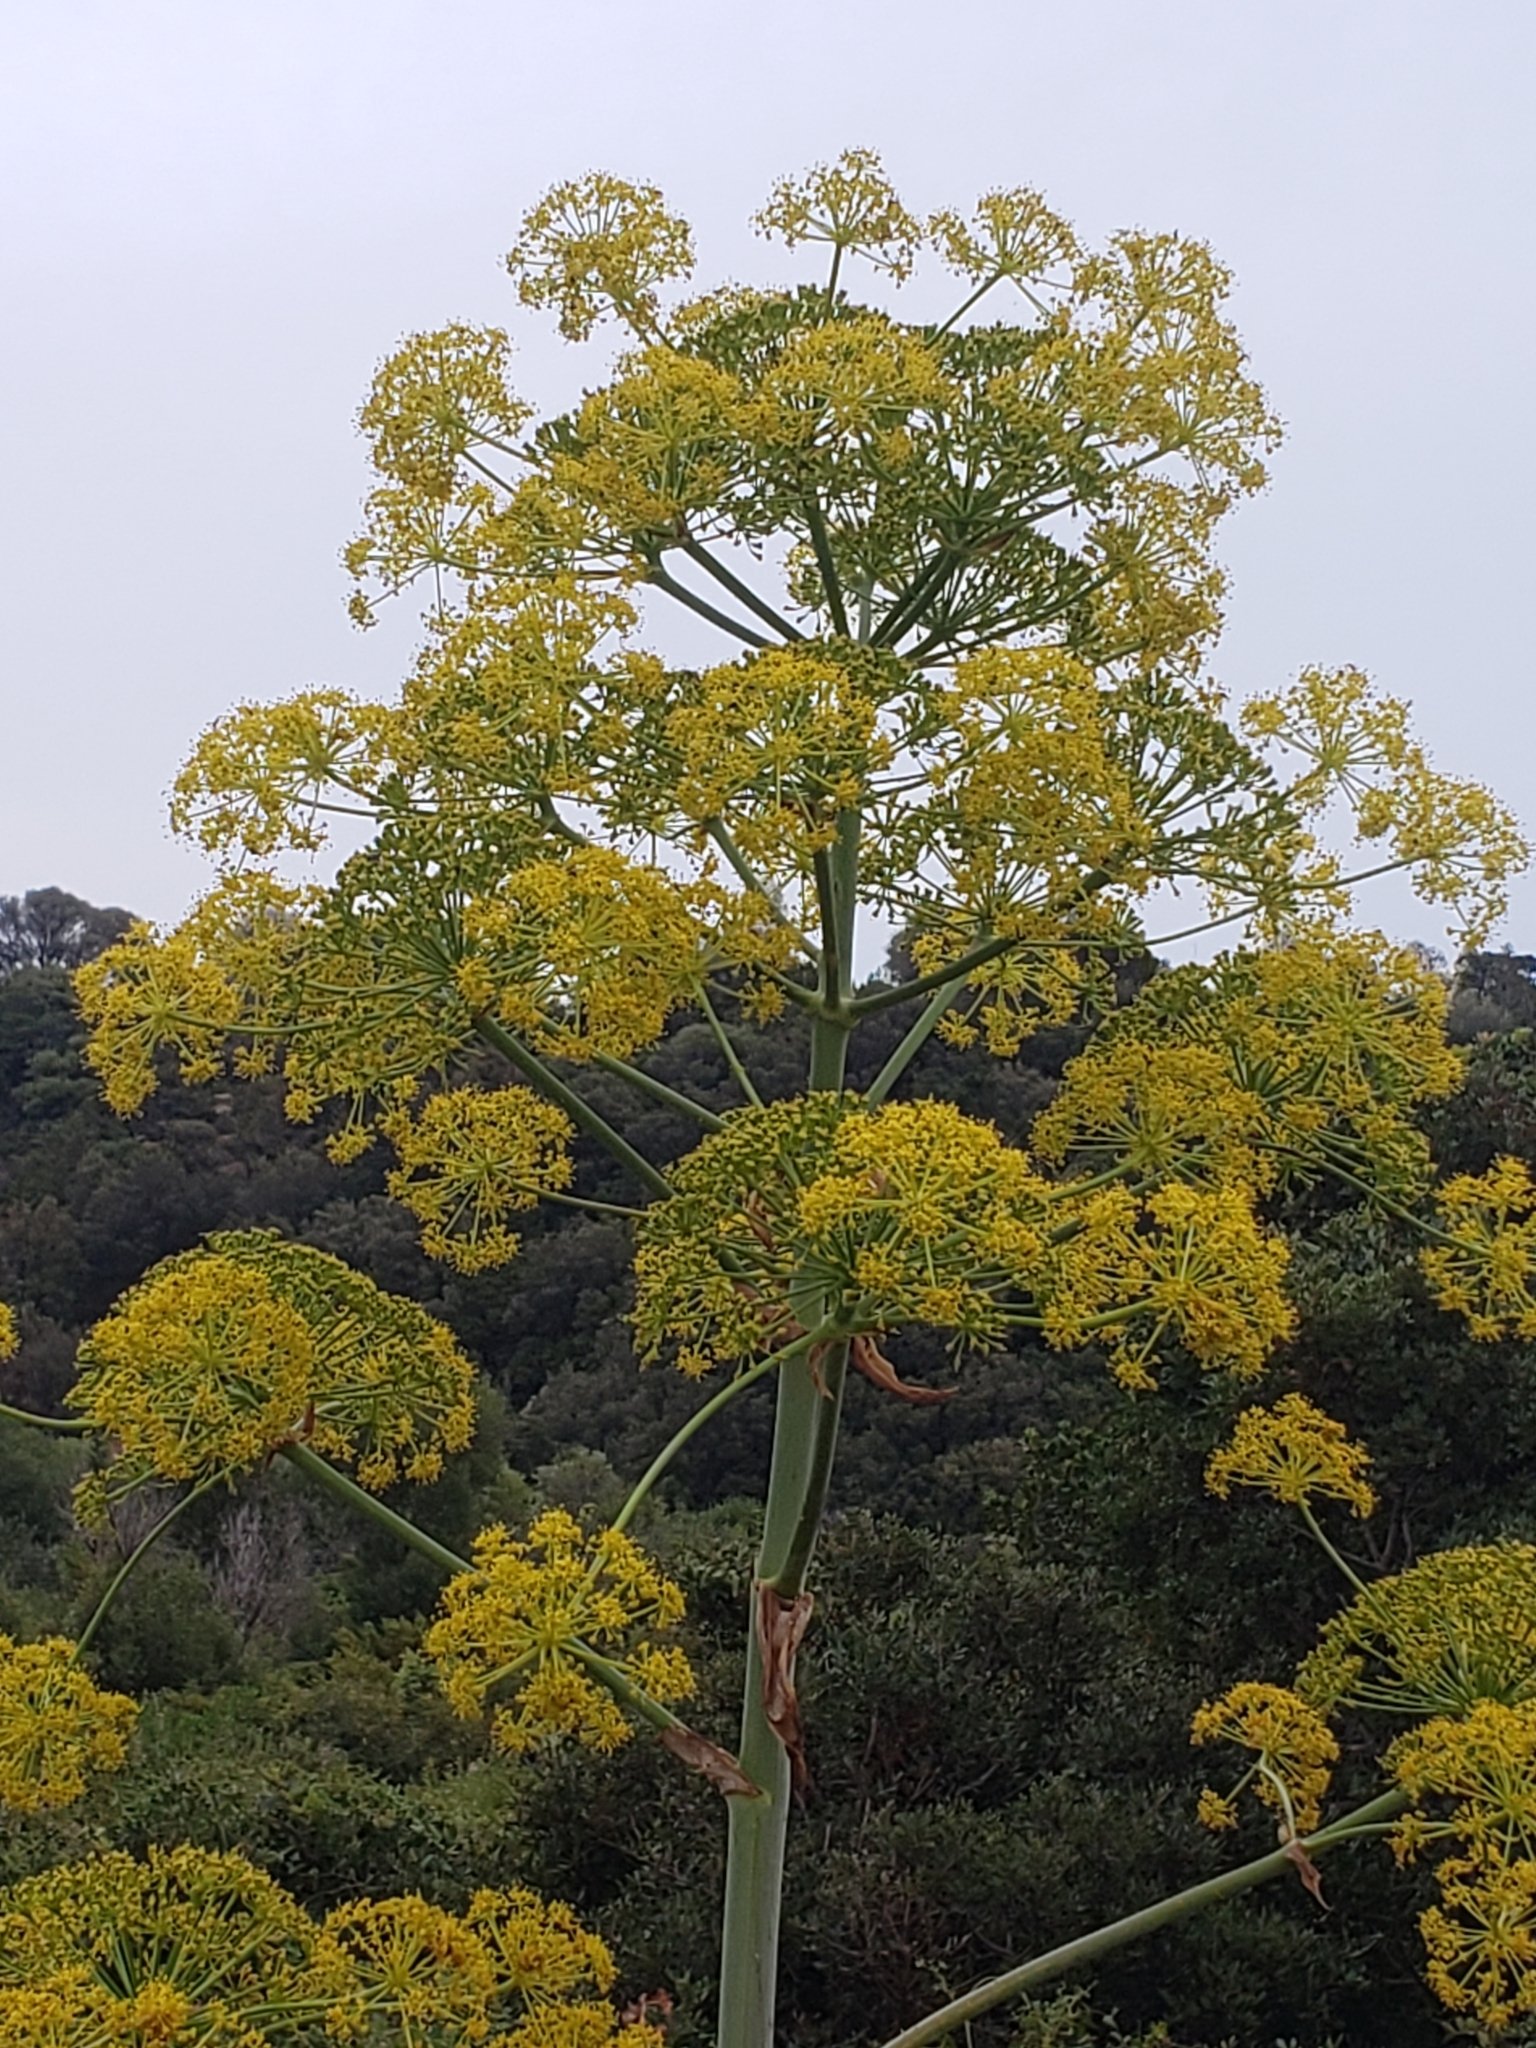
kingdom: Plantae
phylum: Tracheophyta
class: Magnoliopsida
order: Apiales
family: Apiaceae
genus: Ferula
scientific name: Ferula communis
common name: Giant fennel
